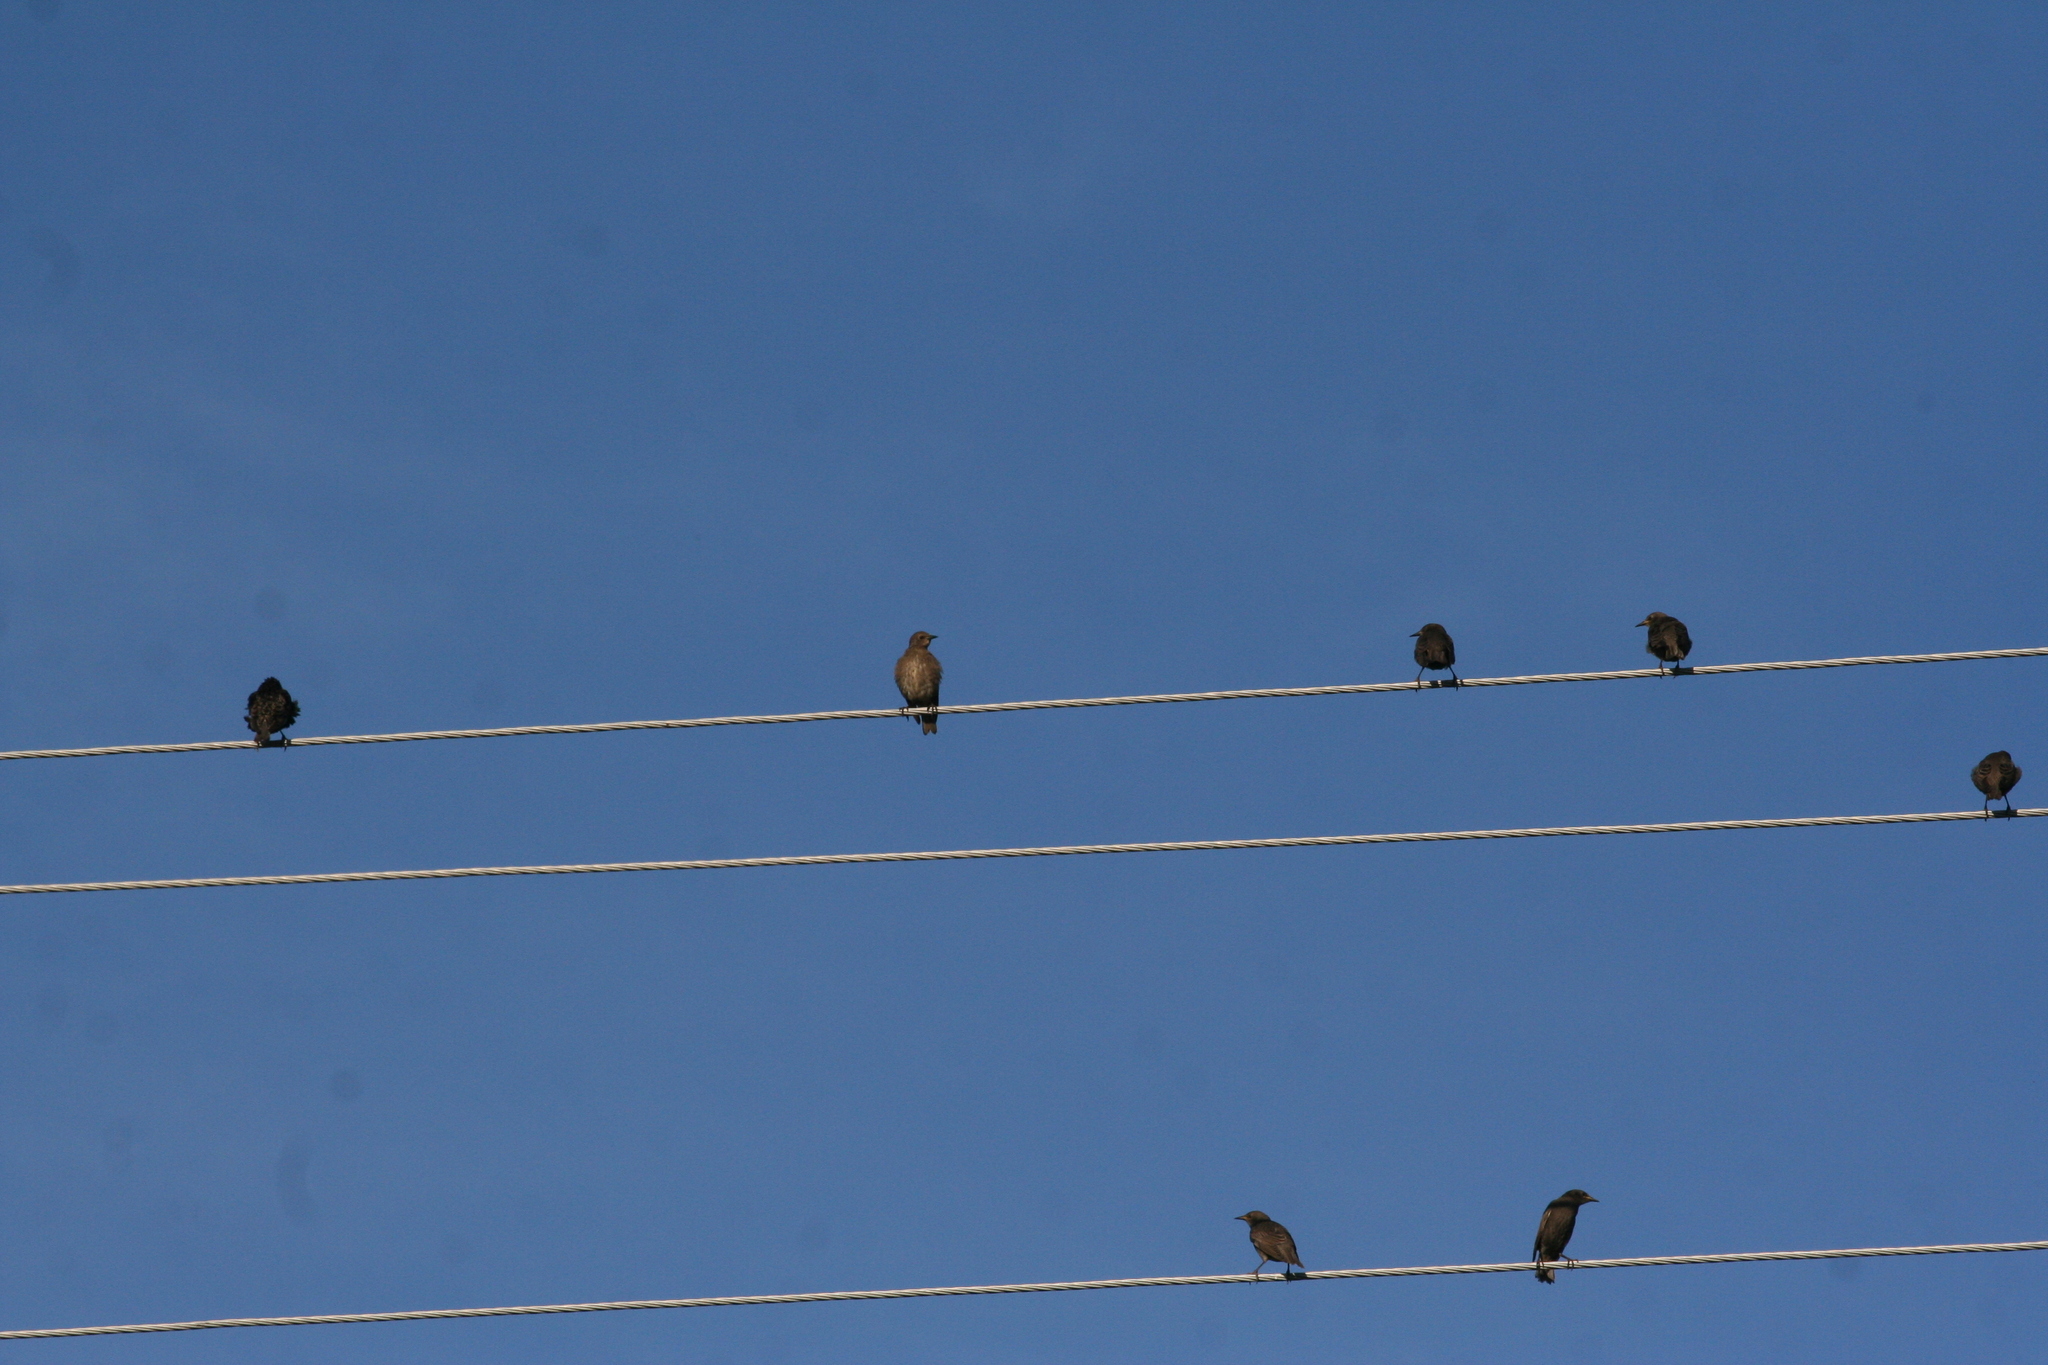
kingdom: Animalia
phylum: Chordata
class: Aves
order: Passeriformes
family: Sturnidae
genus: Sturnus
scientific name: Sturnus vulgaris
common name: Common starling
